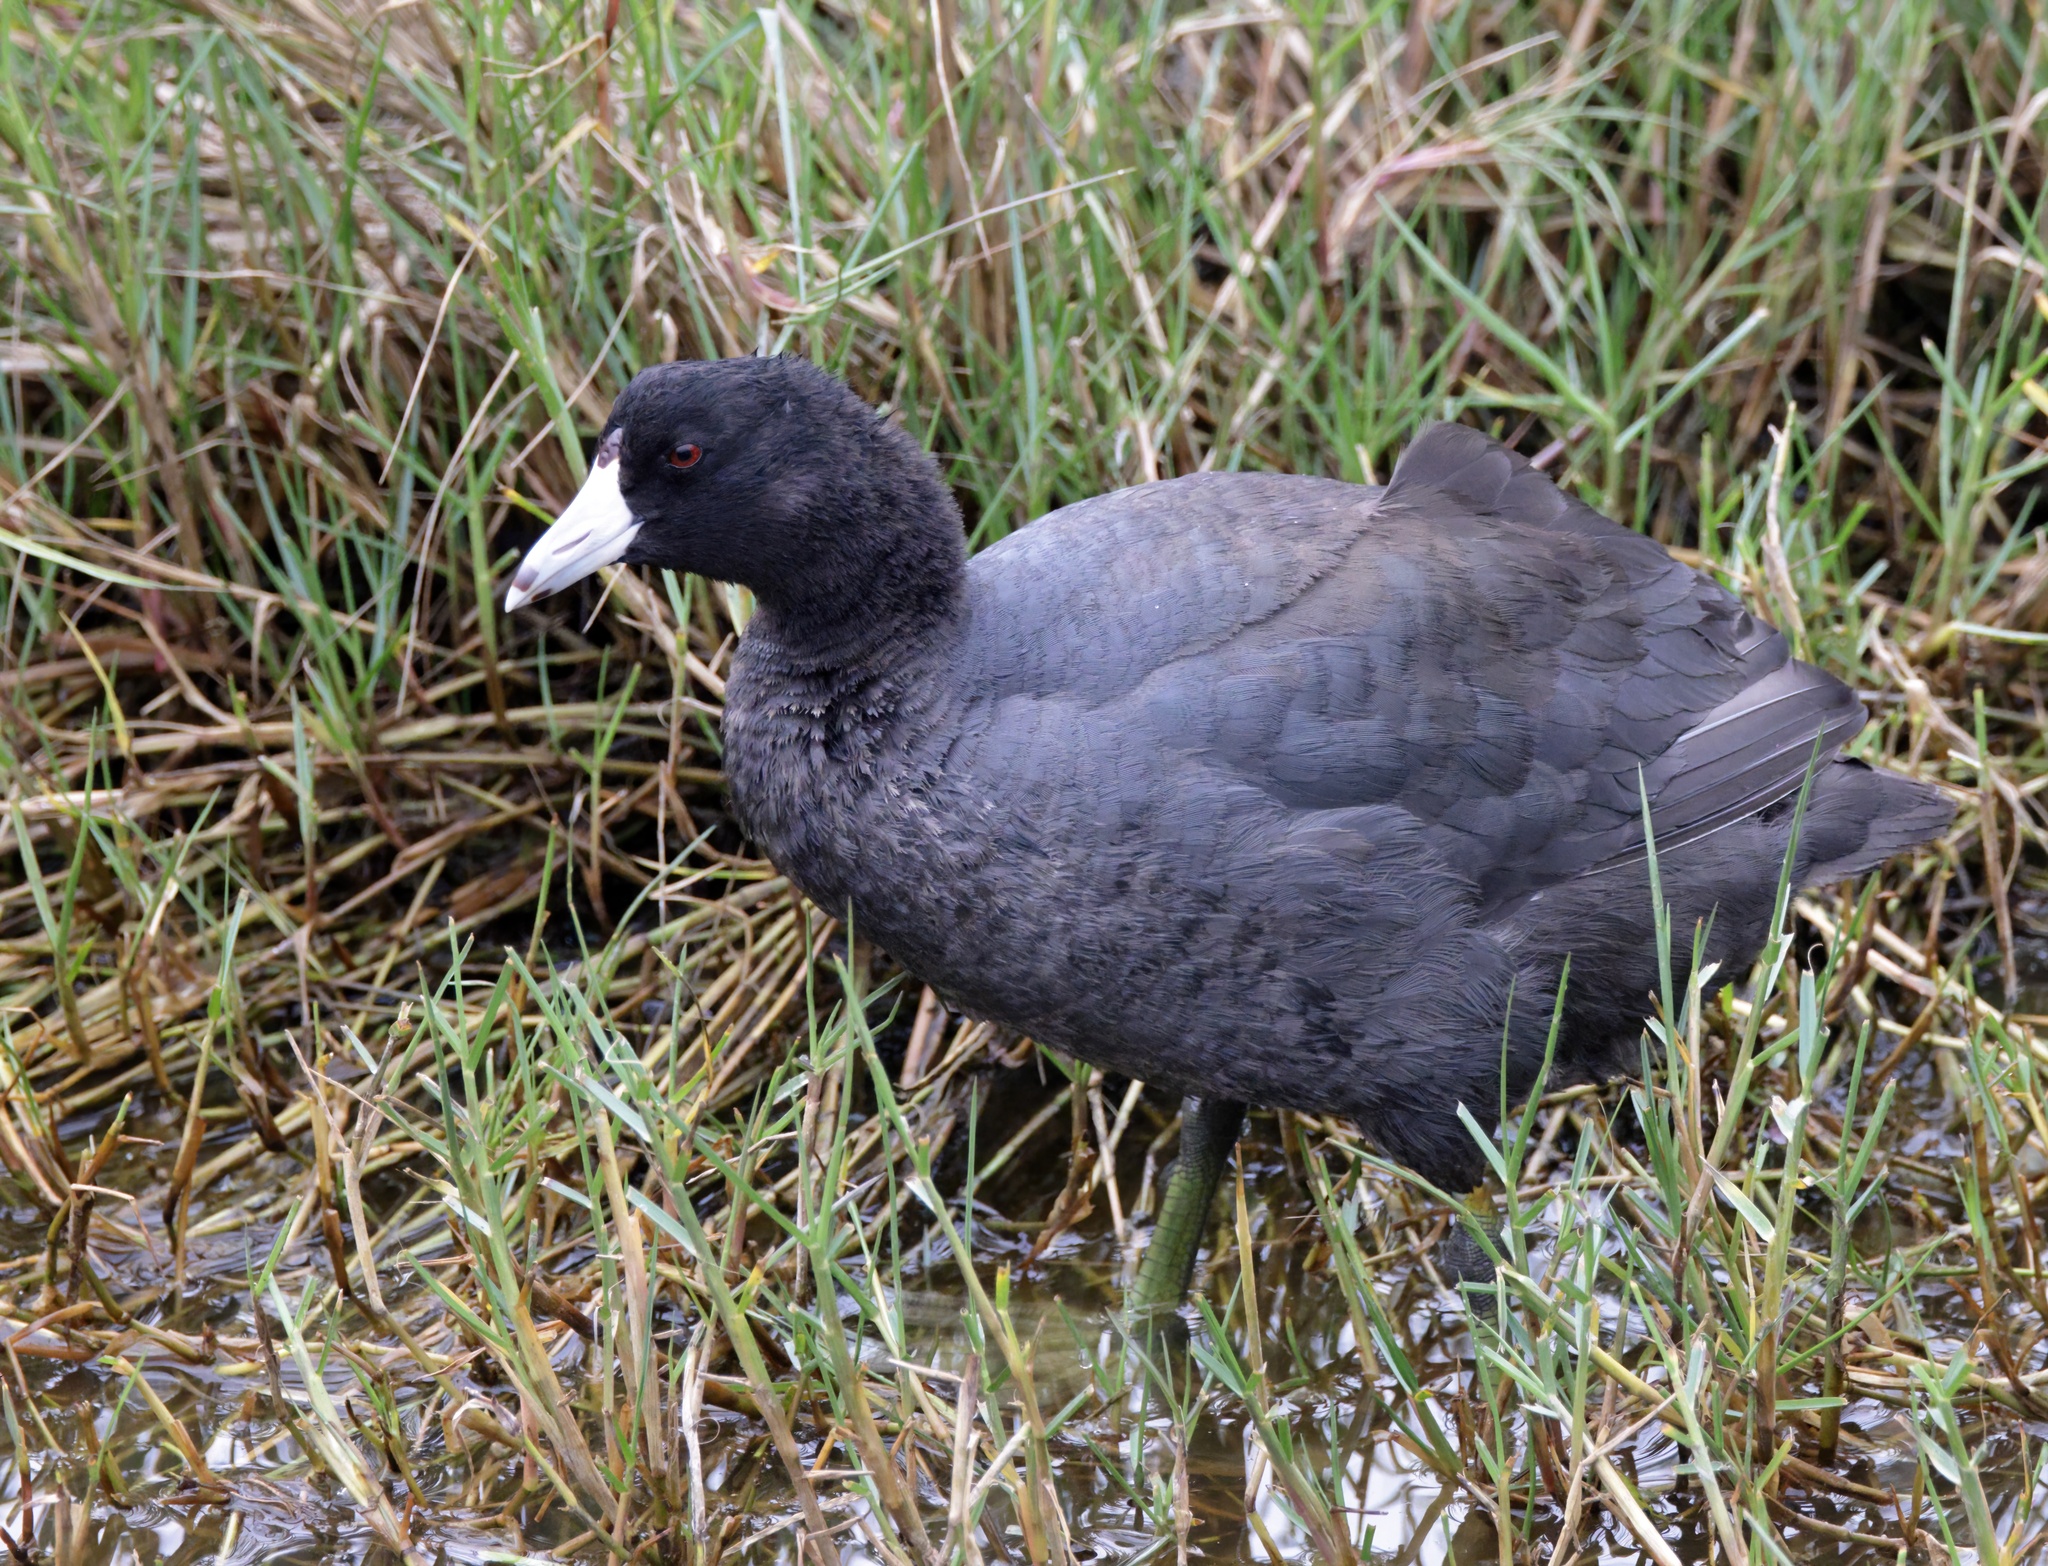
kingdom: Animalia
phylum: Chordata
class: Aves
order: Gruiformes
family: Rallidae
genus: Fulica
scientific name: Fulica americana
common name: American coot
